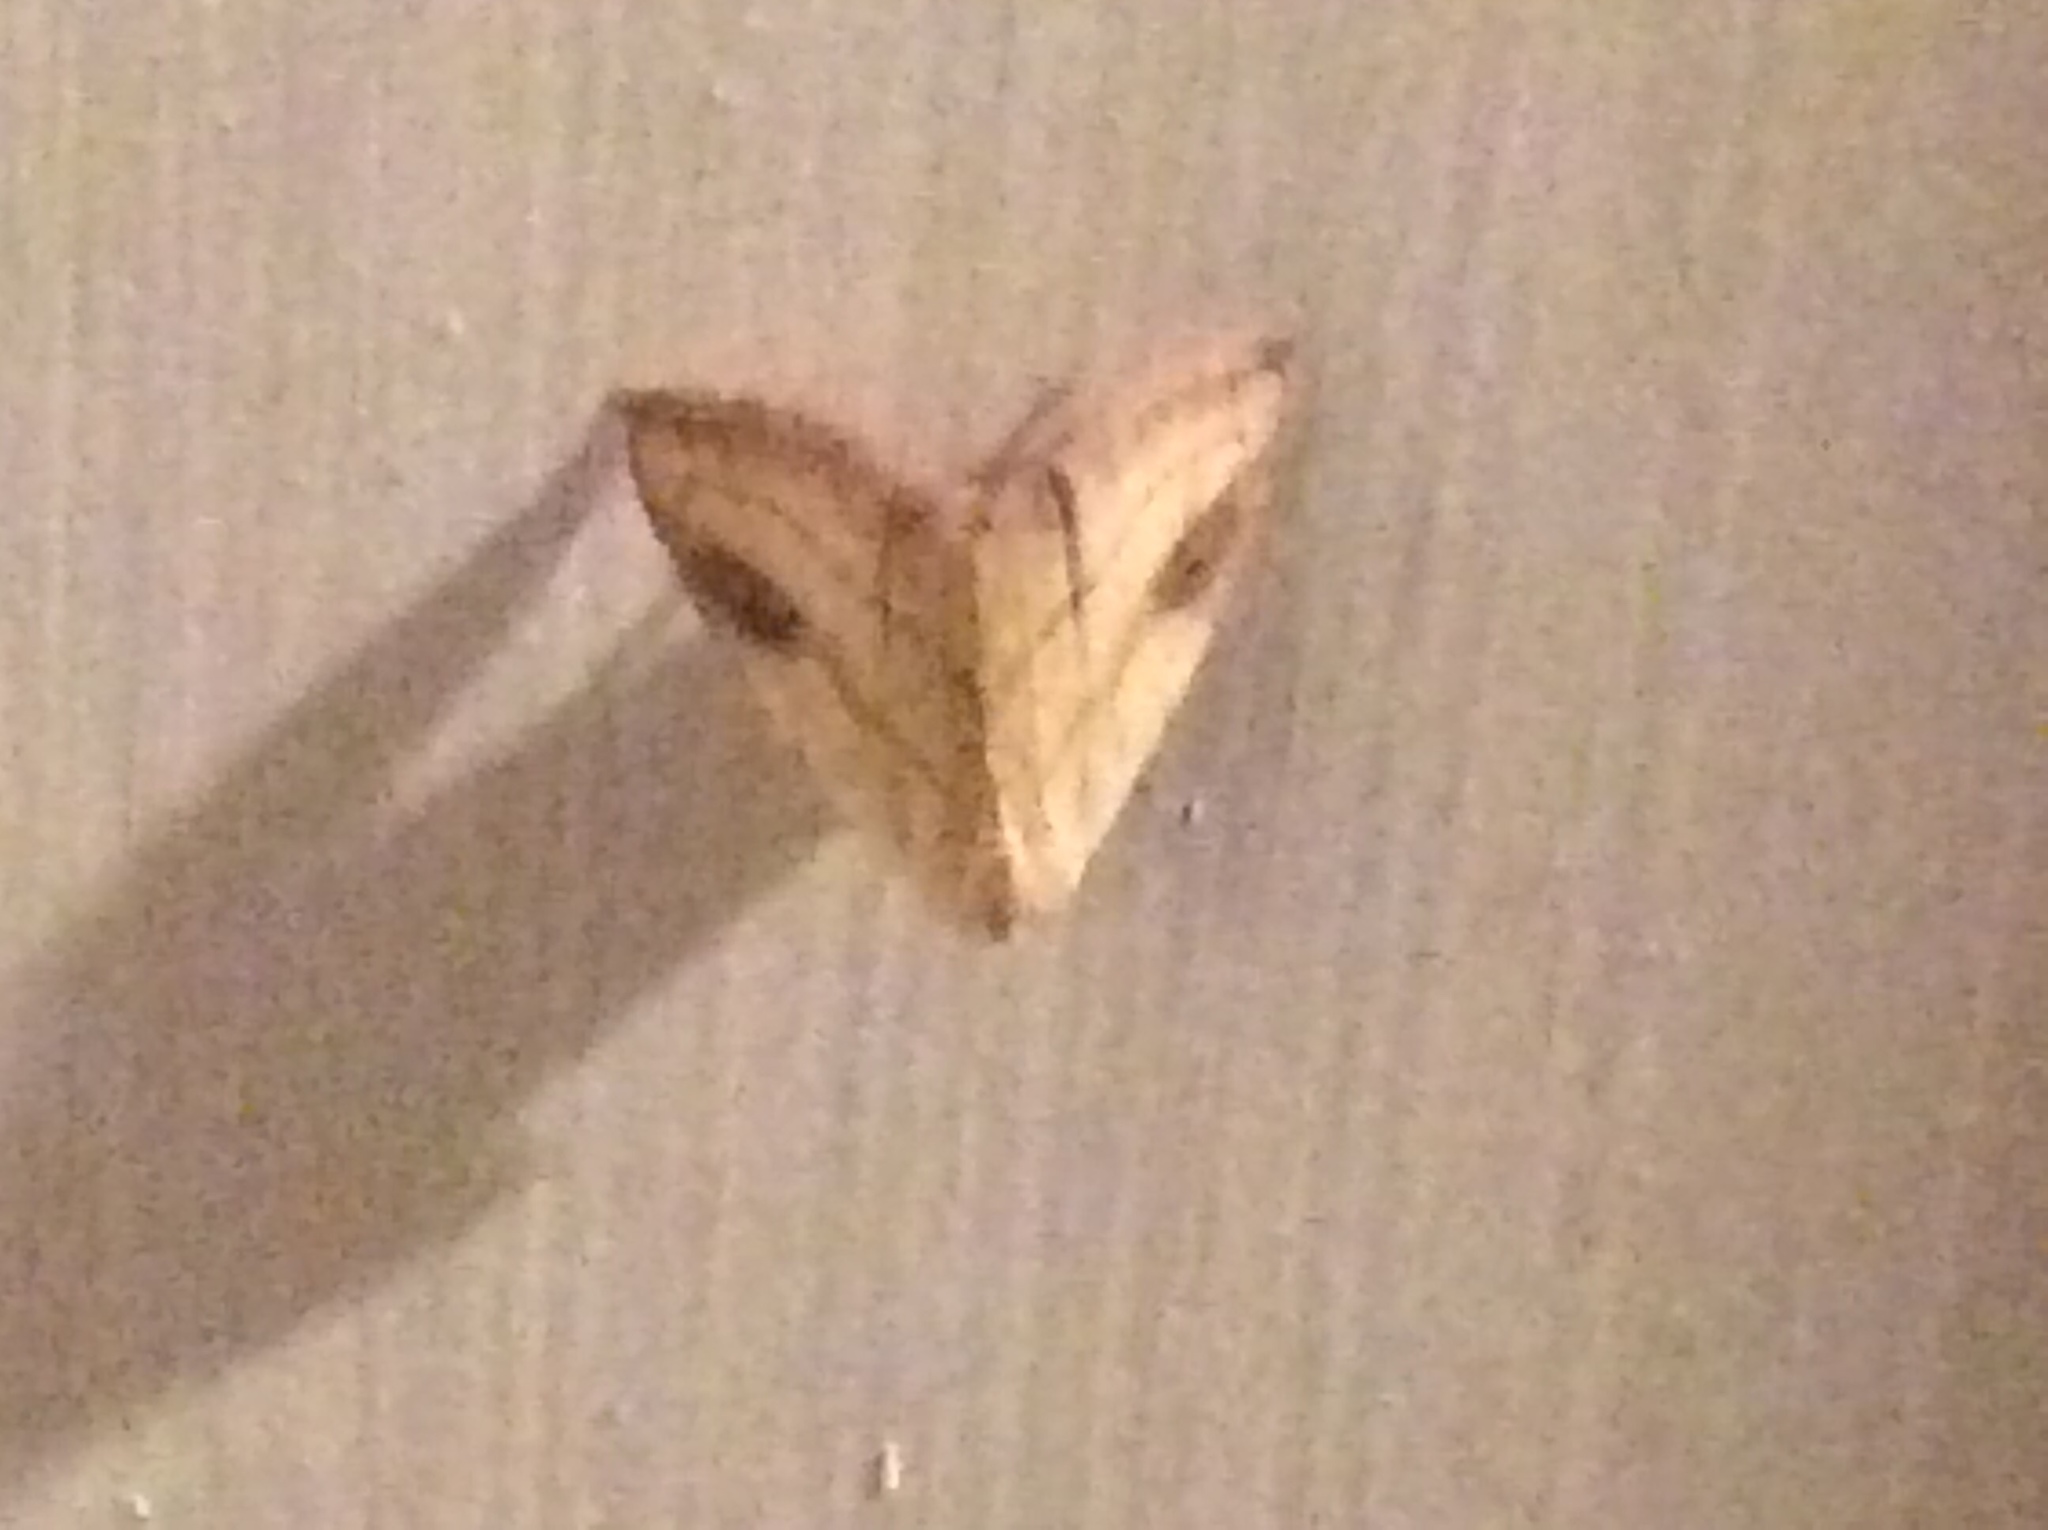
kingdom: Animalia
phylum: Arthropoda
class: Insecta
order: Lepidoptera
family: Erebidae
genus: Rivula
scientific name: Rivula propinqualis
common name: Spotted grass moth
